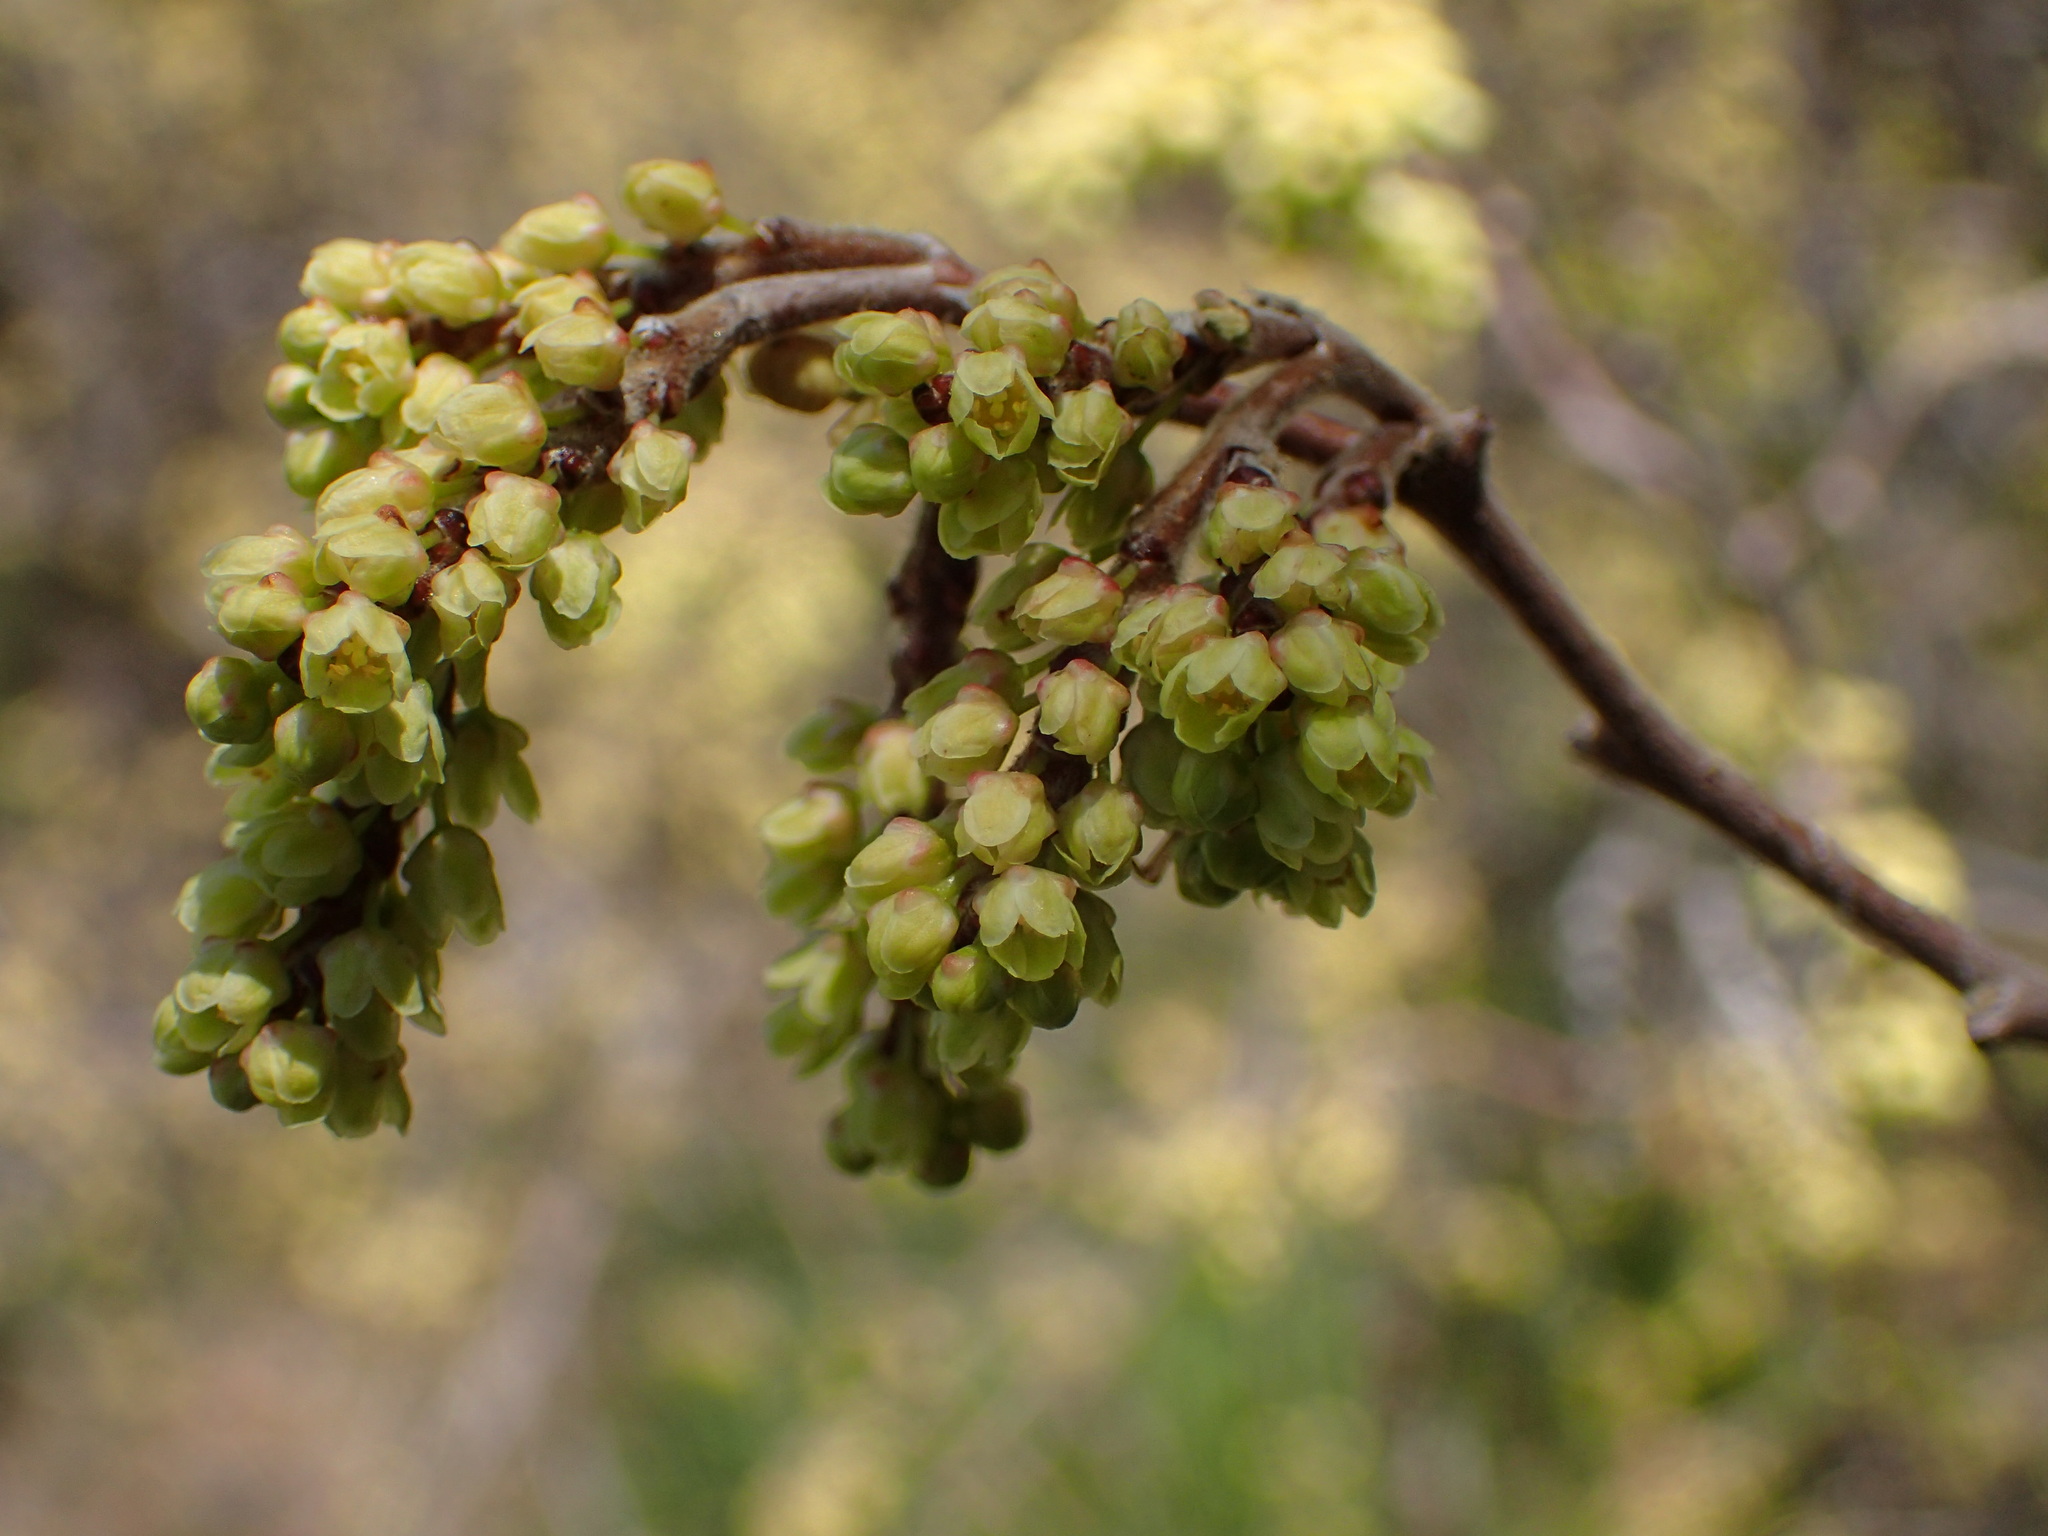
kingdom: Plantae
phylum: Tracheophyta
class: Magnoliopsida
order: Sapindales
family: Anacardiaceae
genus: Rhus
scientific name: Rhus aromatica
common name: Aromatic sumac
